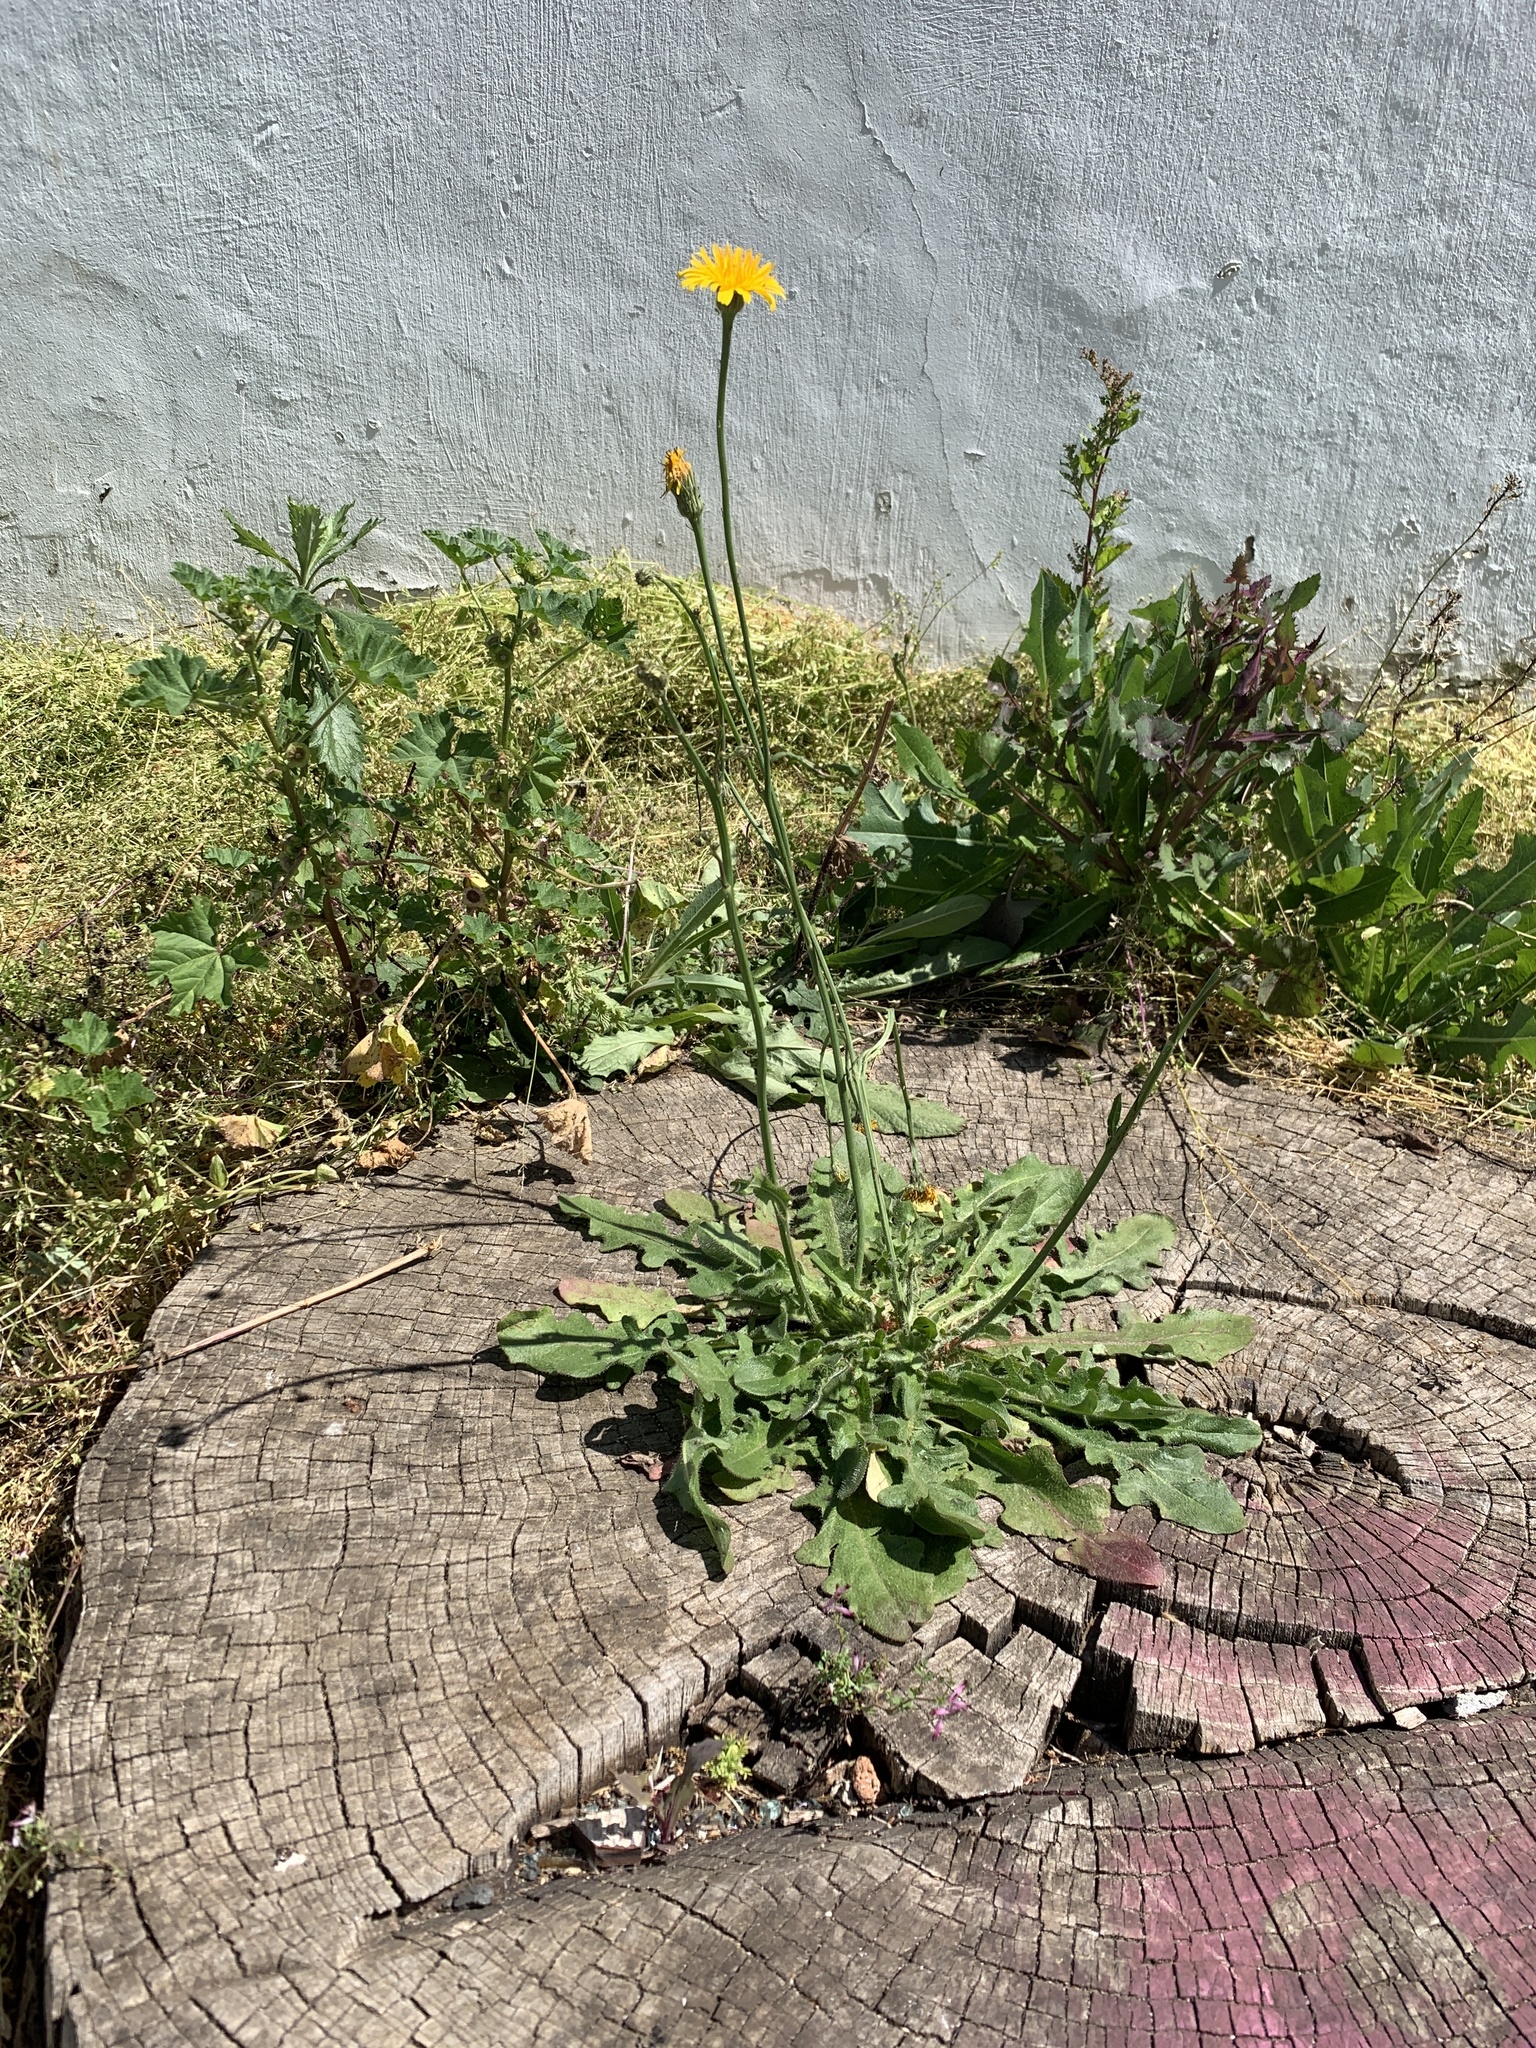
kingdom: Plantae
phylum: Tracheophyta
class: Magnoliopsida
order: Asterales
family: Asteraceae
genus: Hypochaeris
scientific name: Hypochaeris radicata
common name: Flatweed
